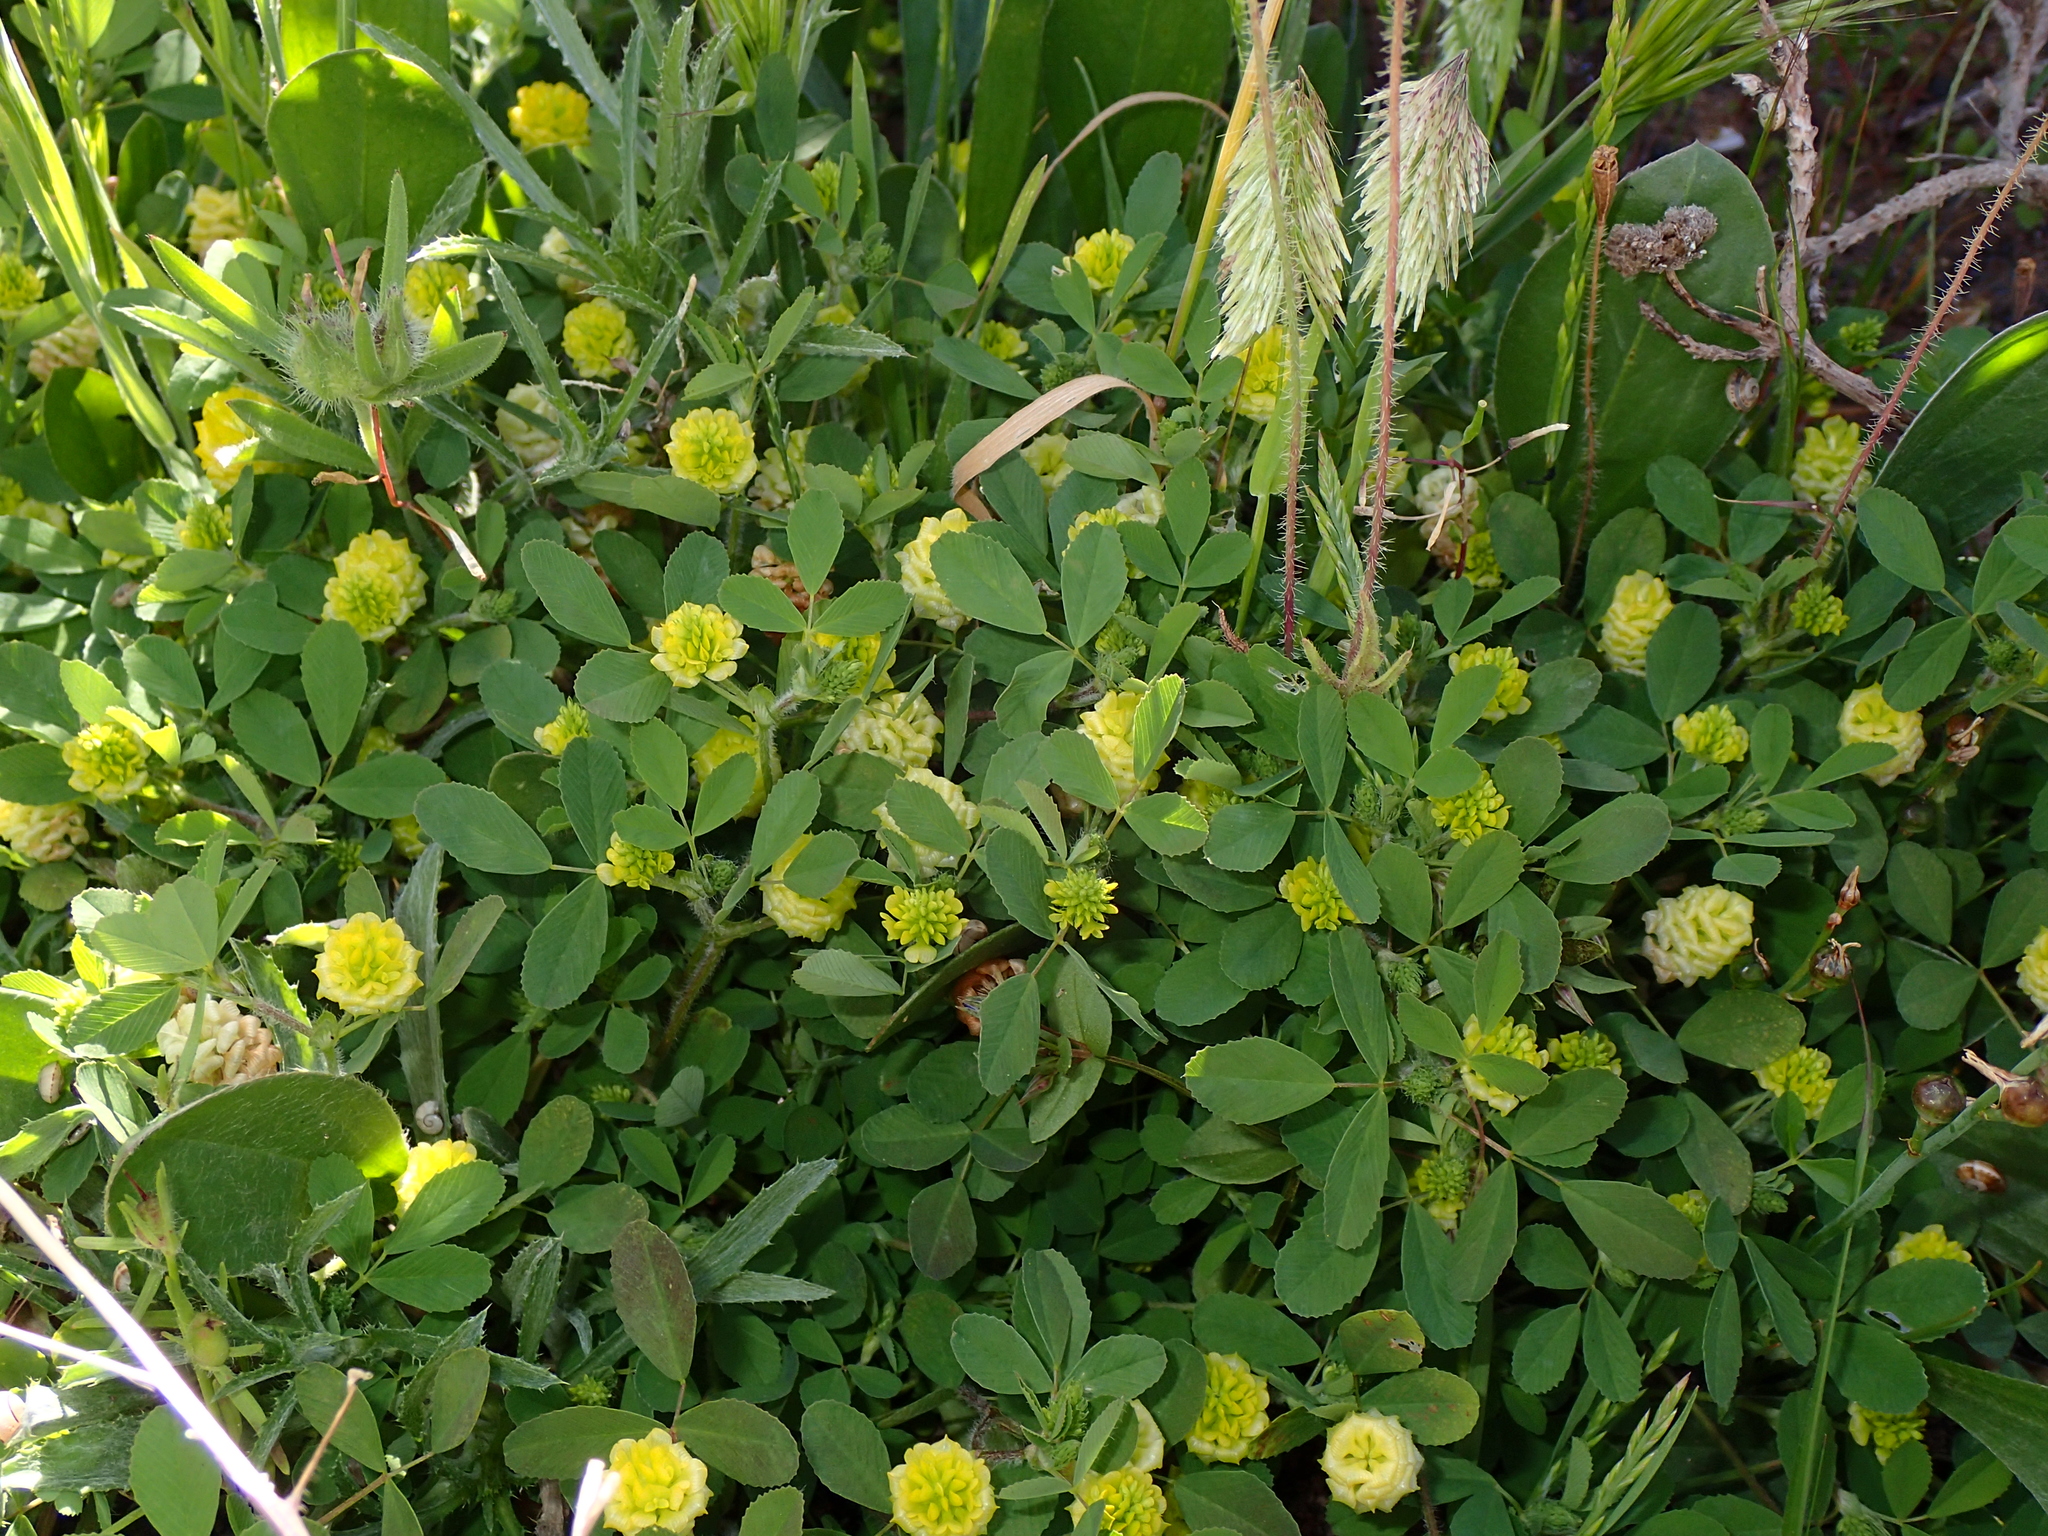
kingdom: Plantae
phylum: Tracheophyta
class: Magnoliopsida
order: Fabales
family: Fabaceae
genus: Trifolium
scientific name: Trifolium campestre
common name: Field clover
